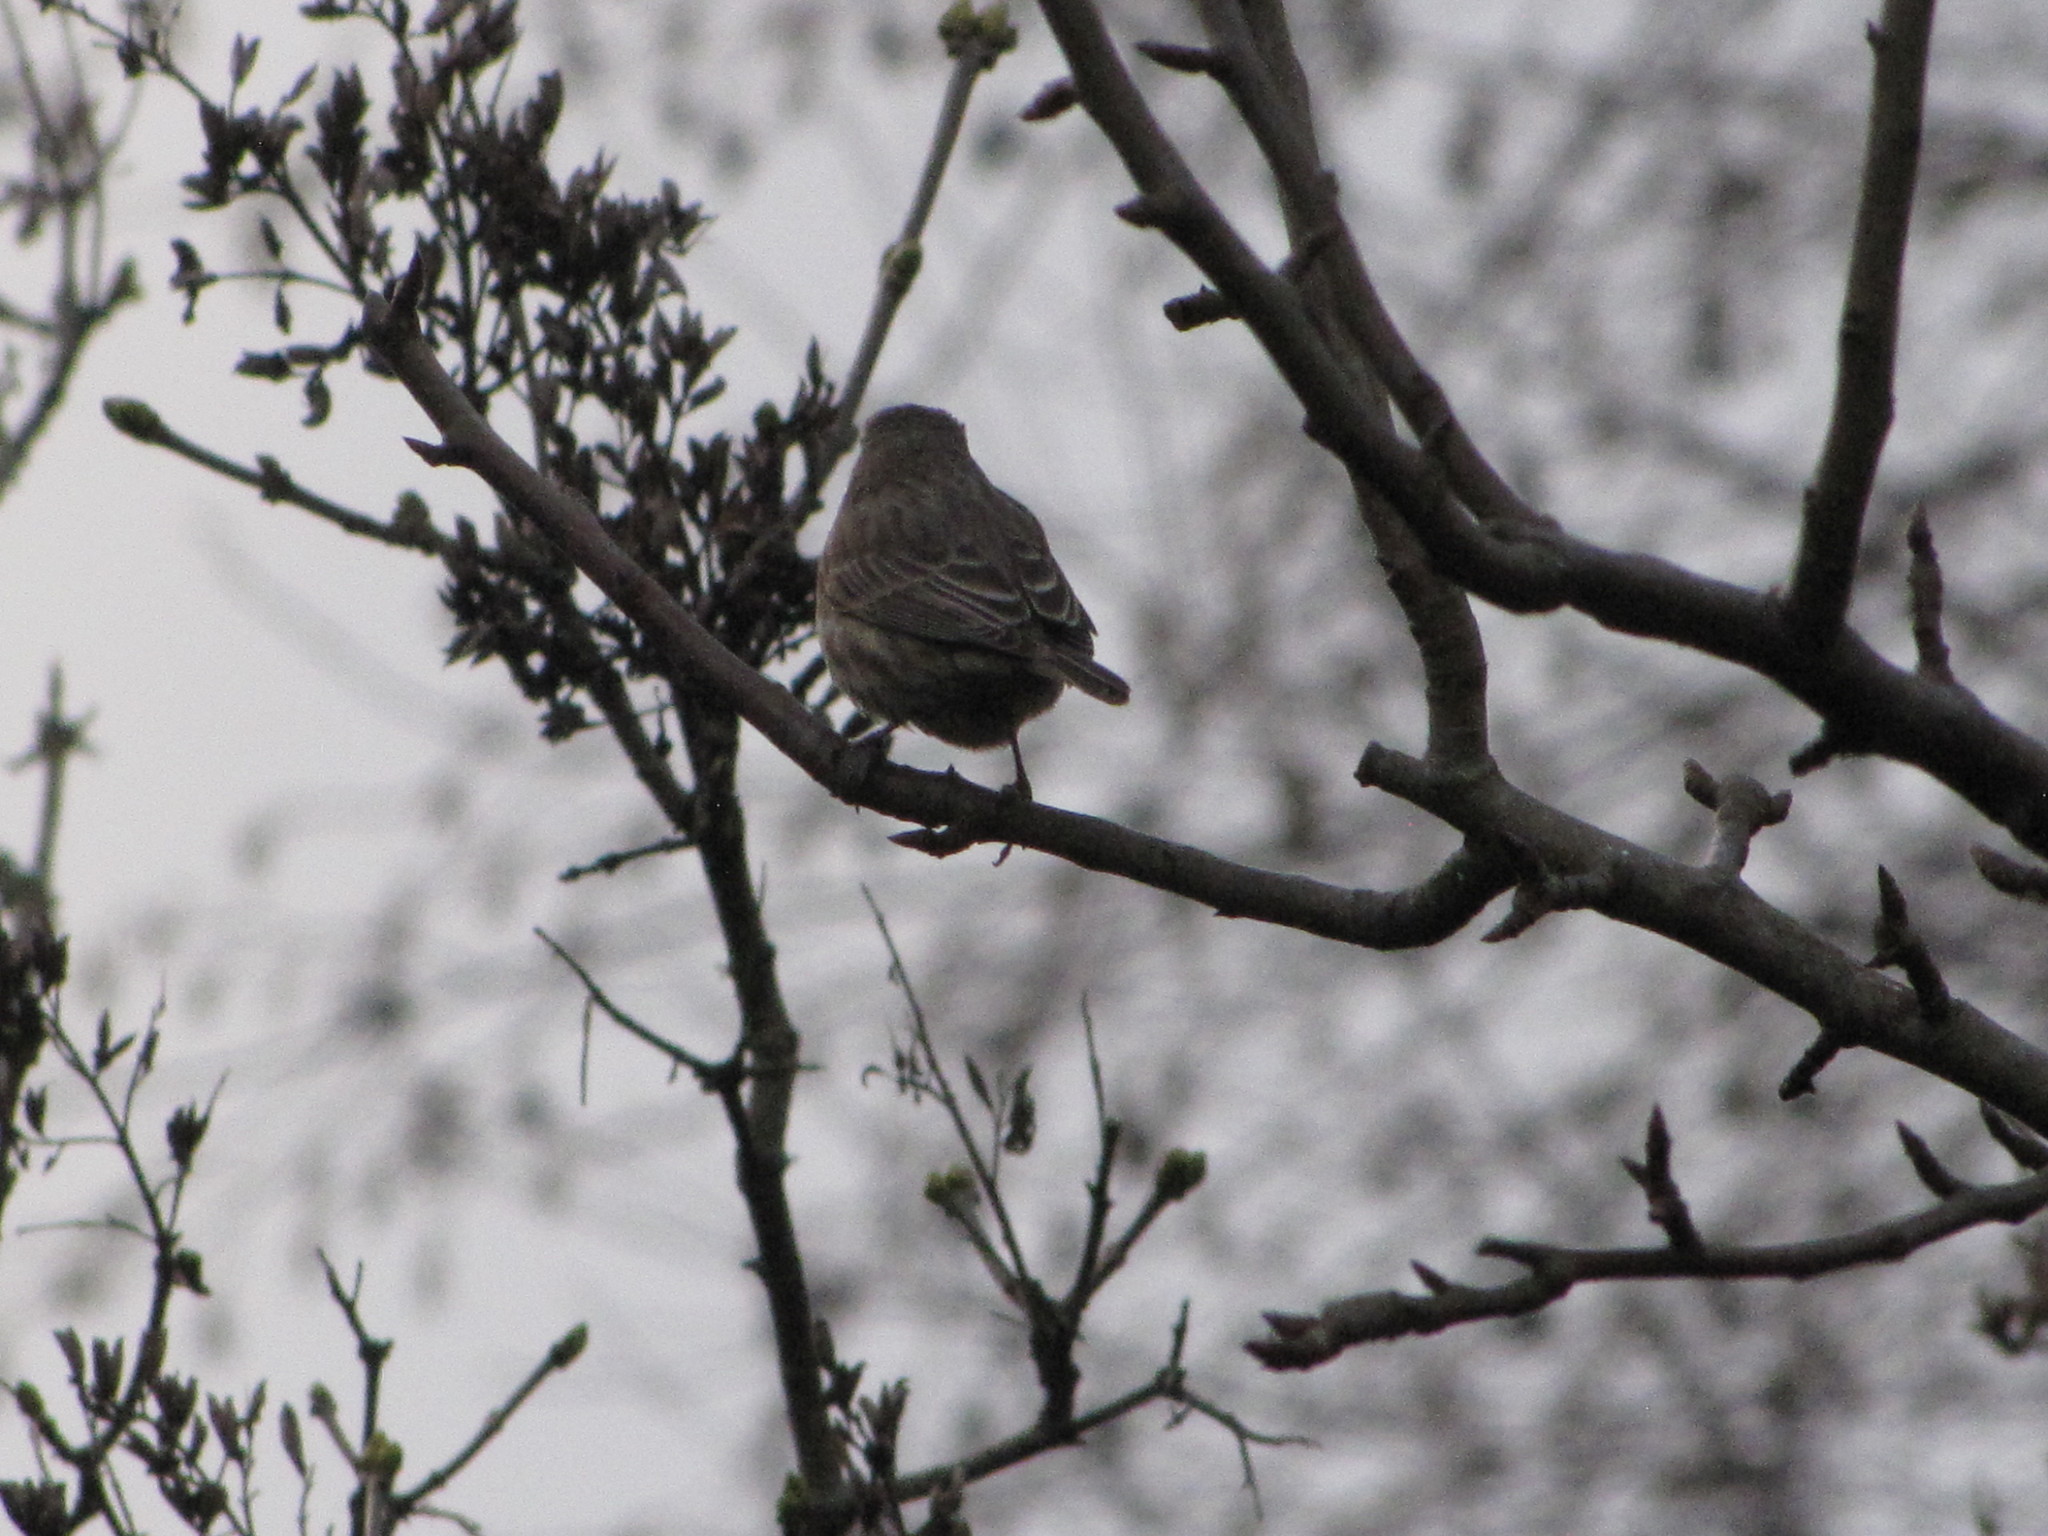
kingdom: Animalia
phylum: Chordata
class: Aves
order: Passeriformes
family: Fringillidae
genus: Haemorhous
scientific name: Haemorhous mexicanus
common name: House finch
